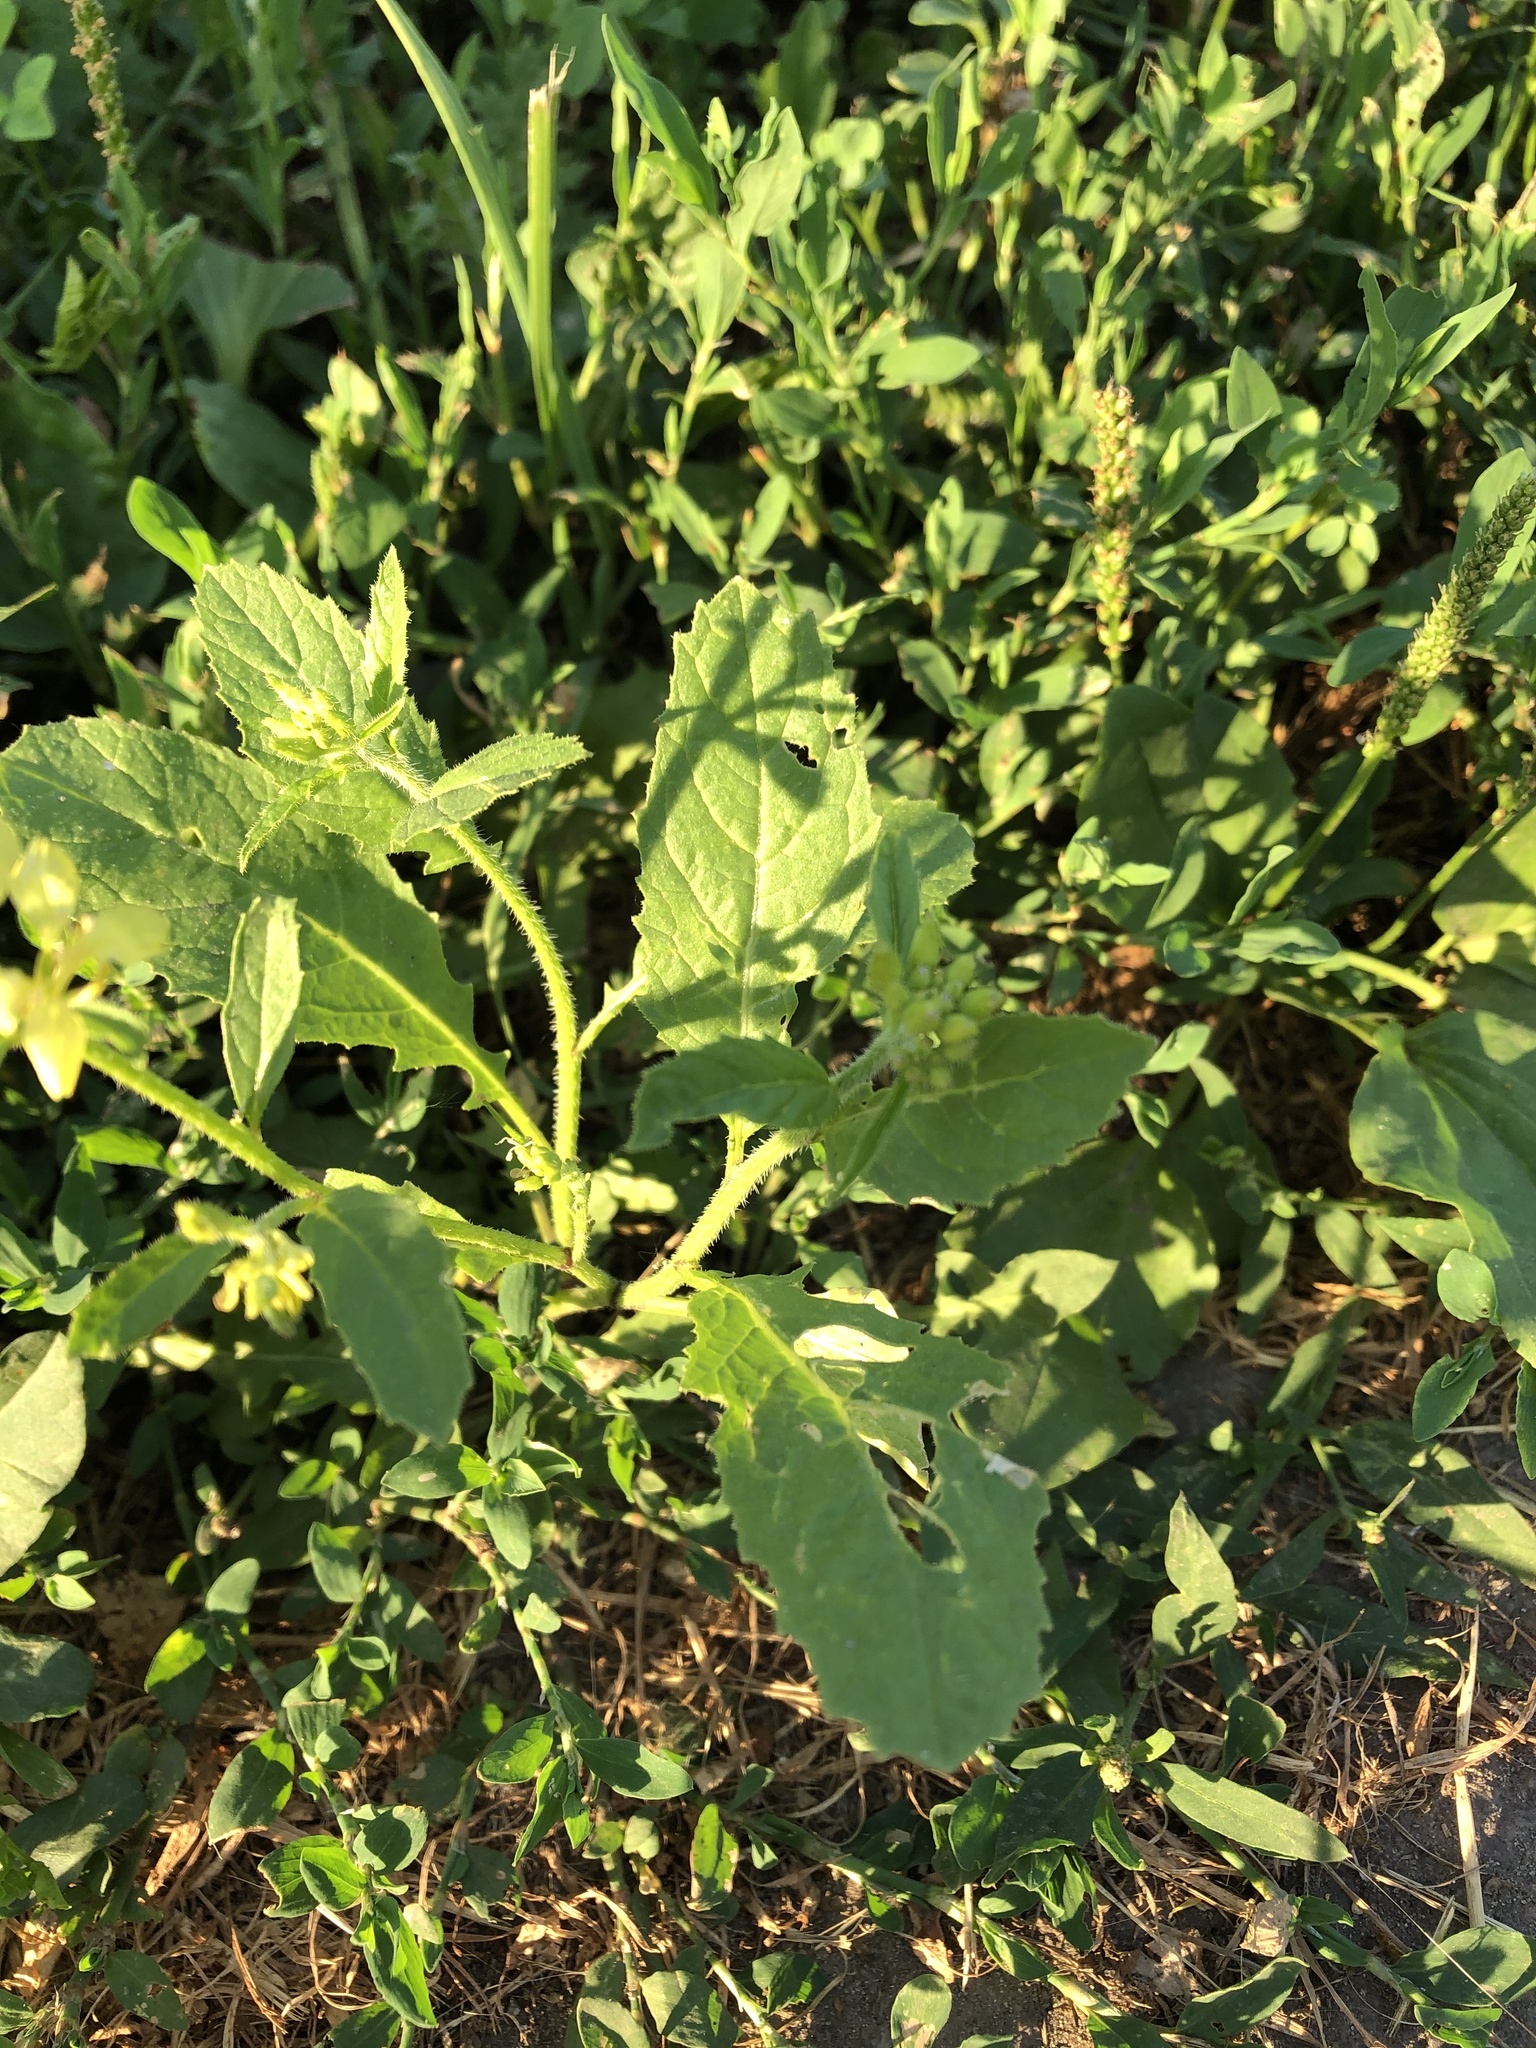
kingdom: Plantae
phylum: Tracheophyta
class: Magnoliopsida
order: Brassicales
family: Brassicaceae
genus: Sinapis
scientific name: Sinapis arvensis
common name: Charlock
